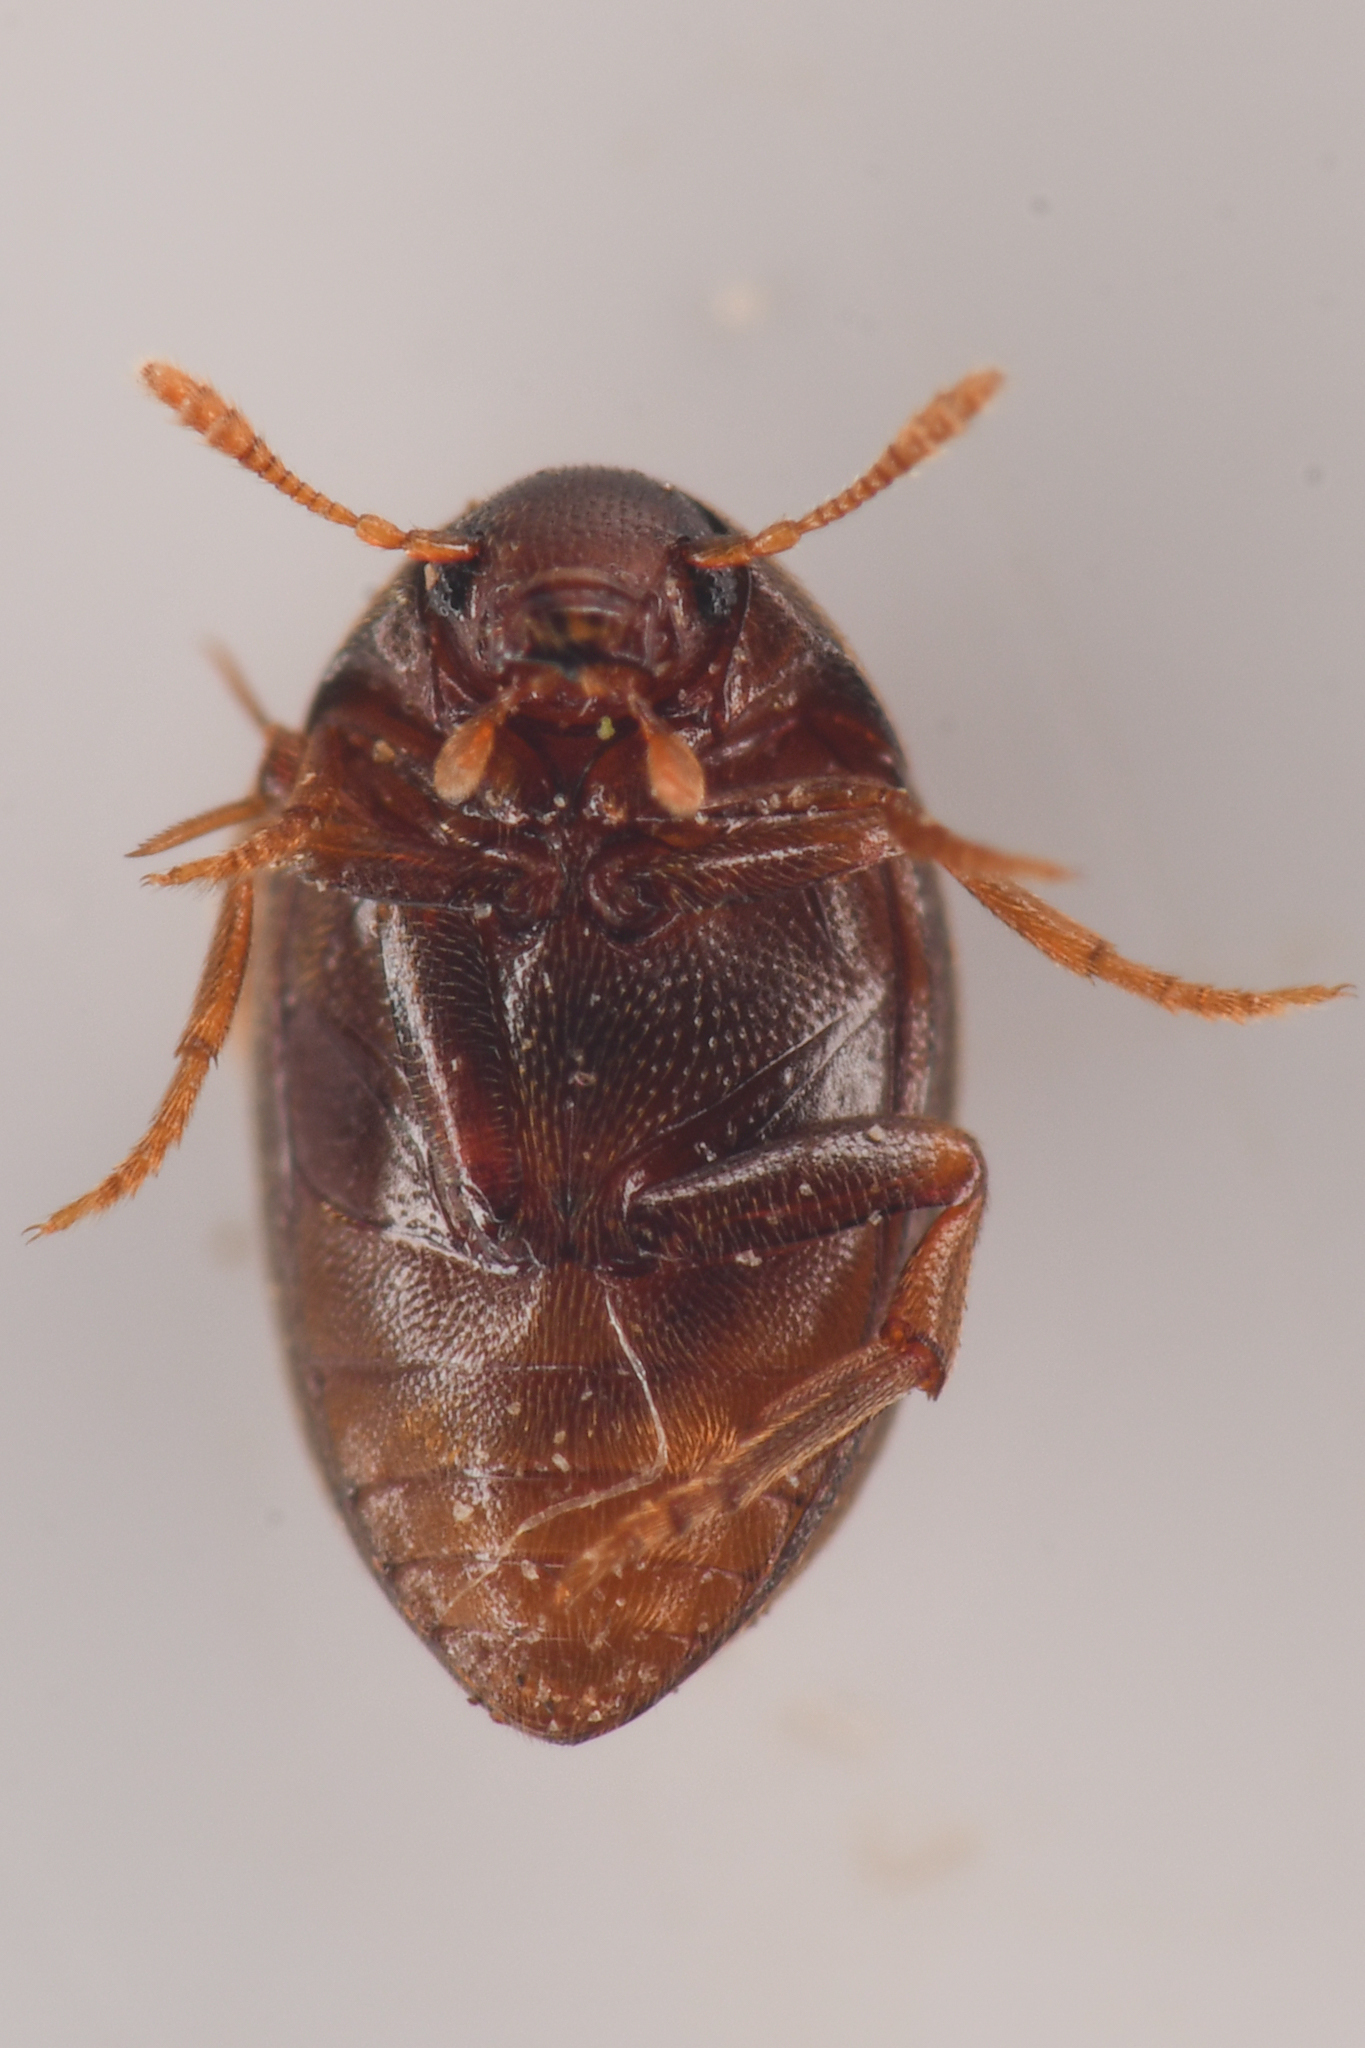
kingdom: Animalia
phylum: Arthropoda
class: Insecta
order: Coleoptera
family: Melandryidae
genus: Lederia
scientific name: Lederia arctica
